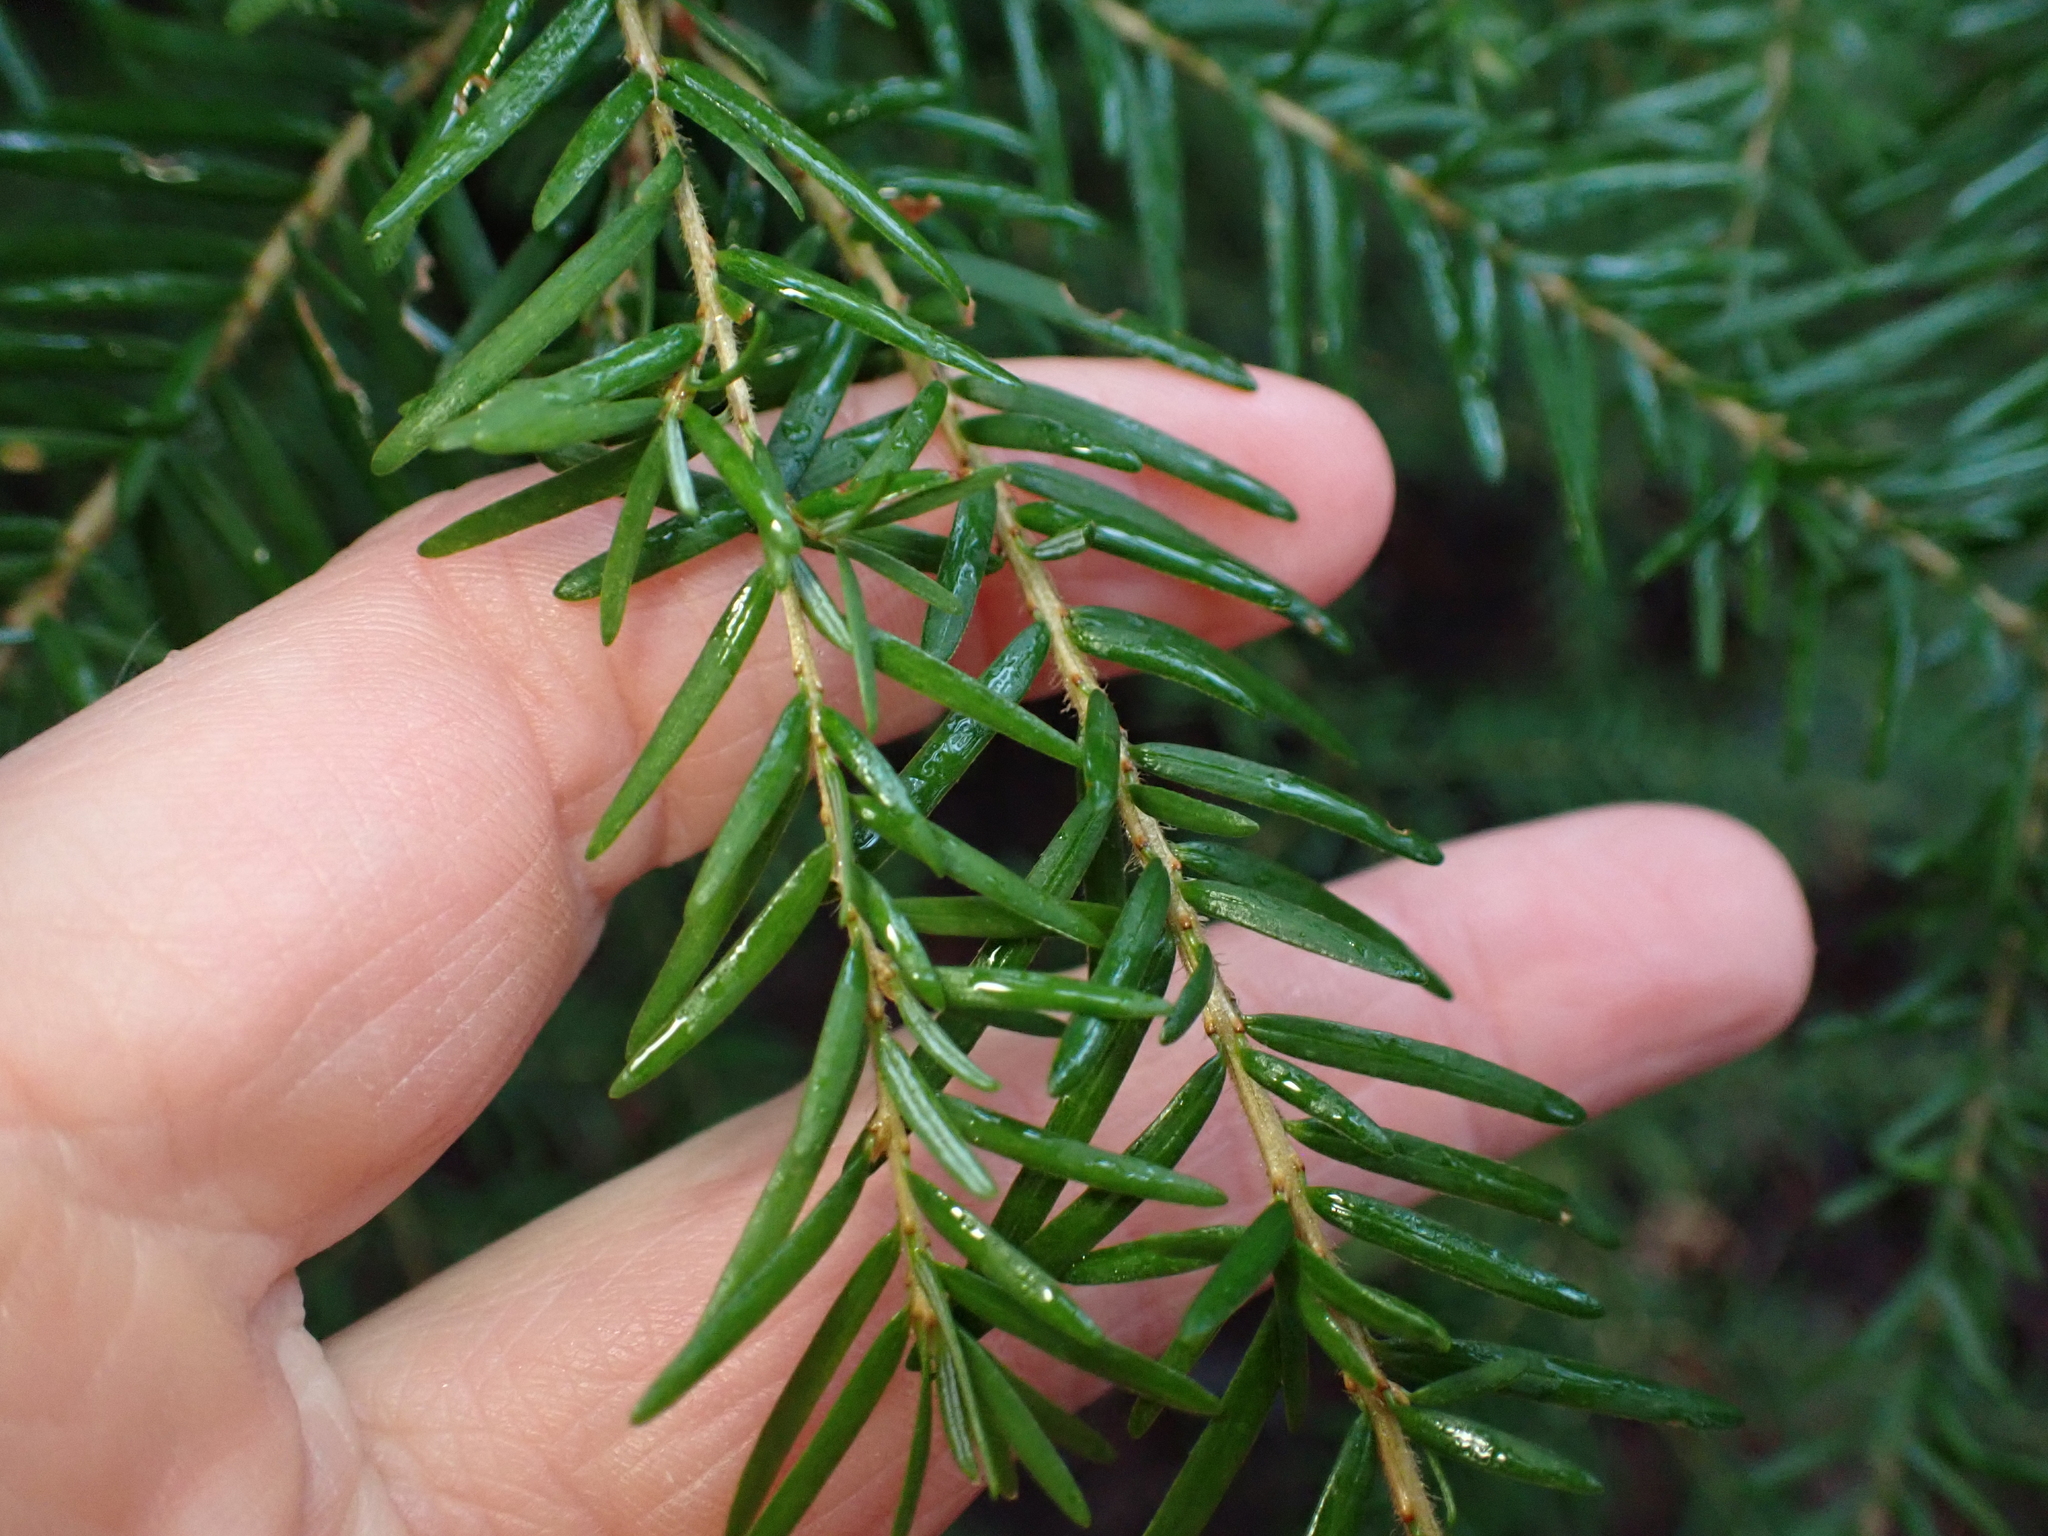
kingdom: Plantae
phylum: Tracheophyta
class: Pinopsida
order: Pinales
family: Pinaceae
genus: Tsuga
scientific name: Tsuga heterophylla
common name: Western hemlock
